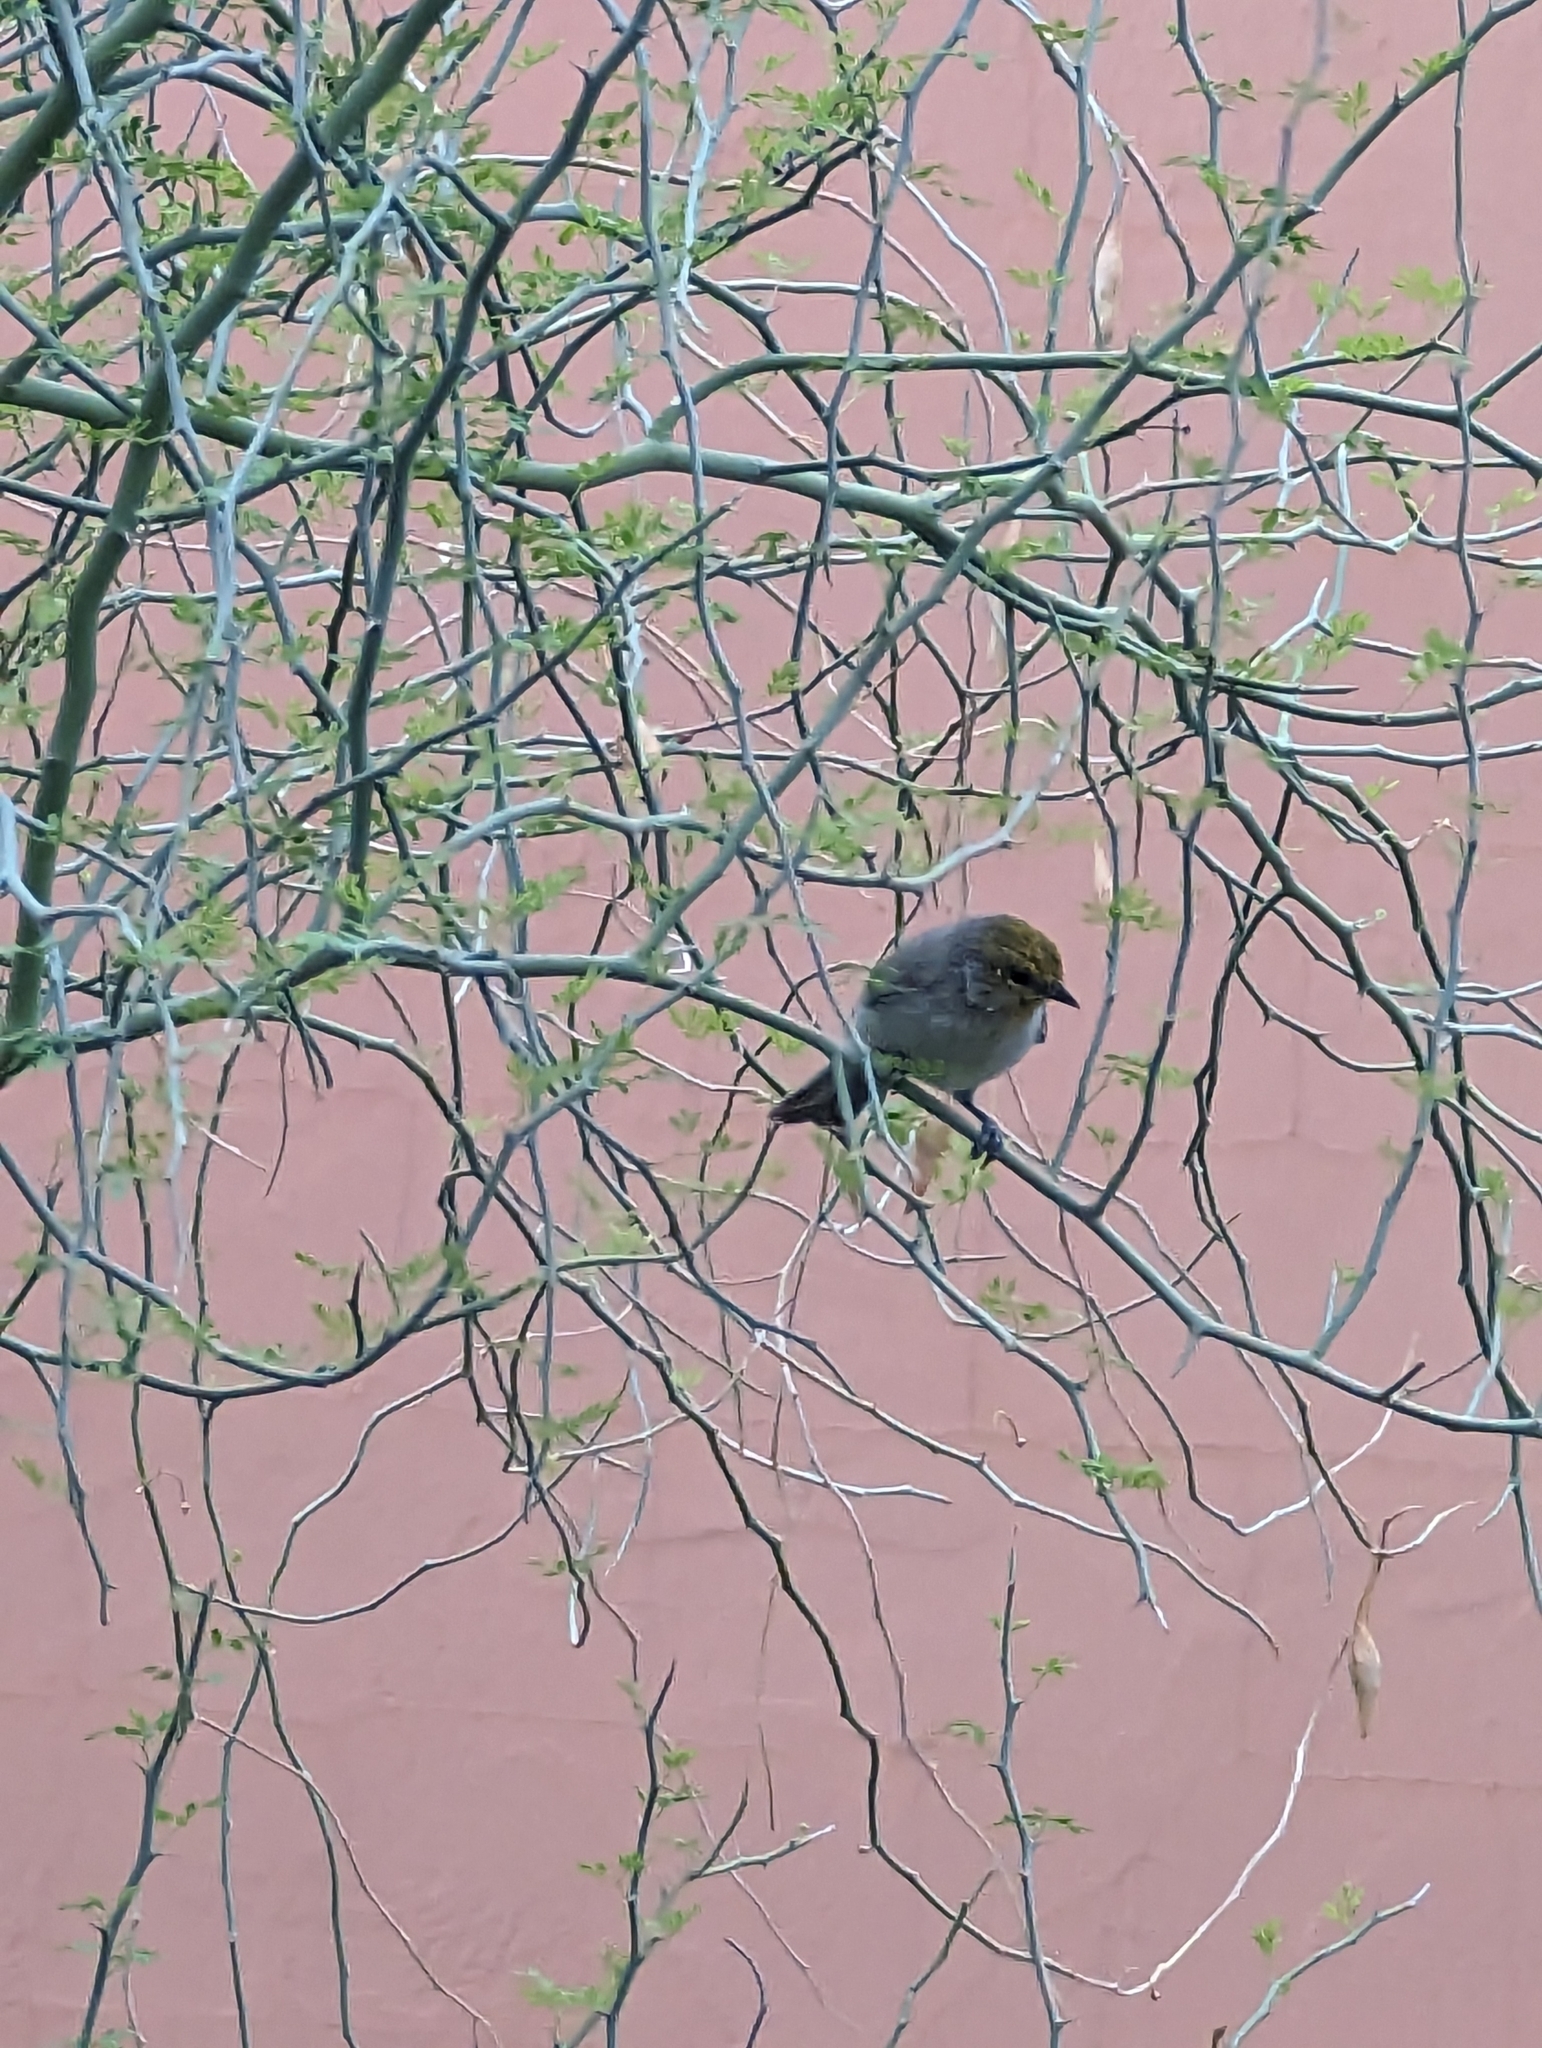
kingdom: Animalia
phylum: Chordata
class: Aves
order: Passeriformes
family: Remizidae
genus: Auriparus
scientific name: Auriparus flaviceps
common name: Verdin
